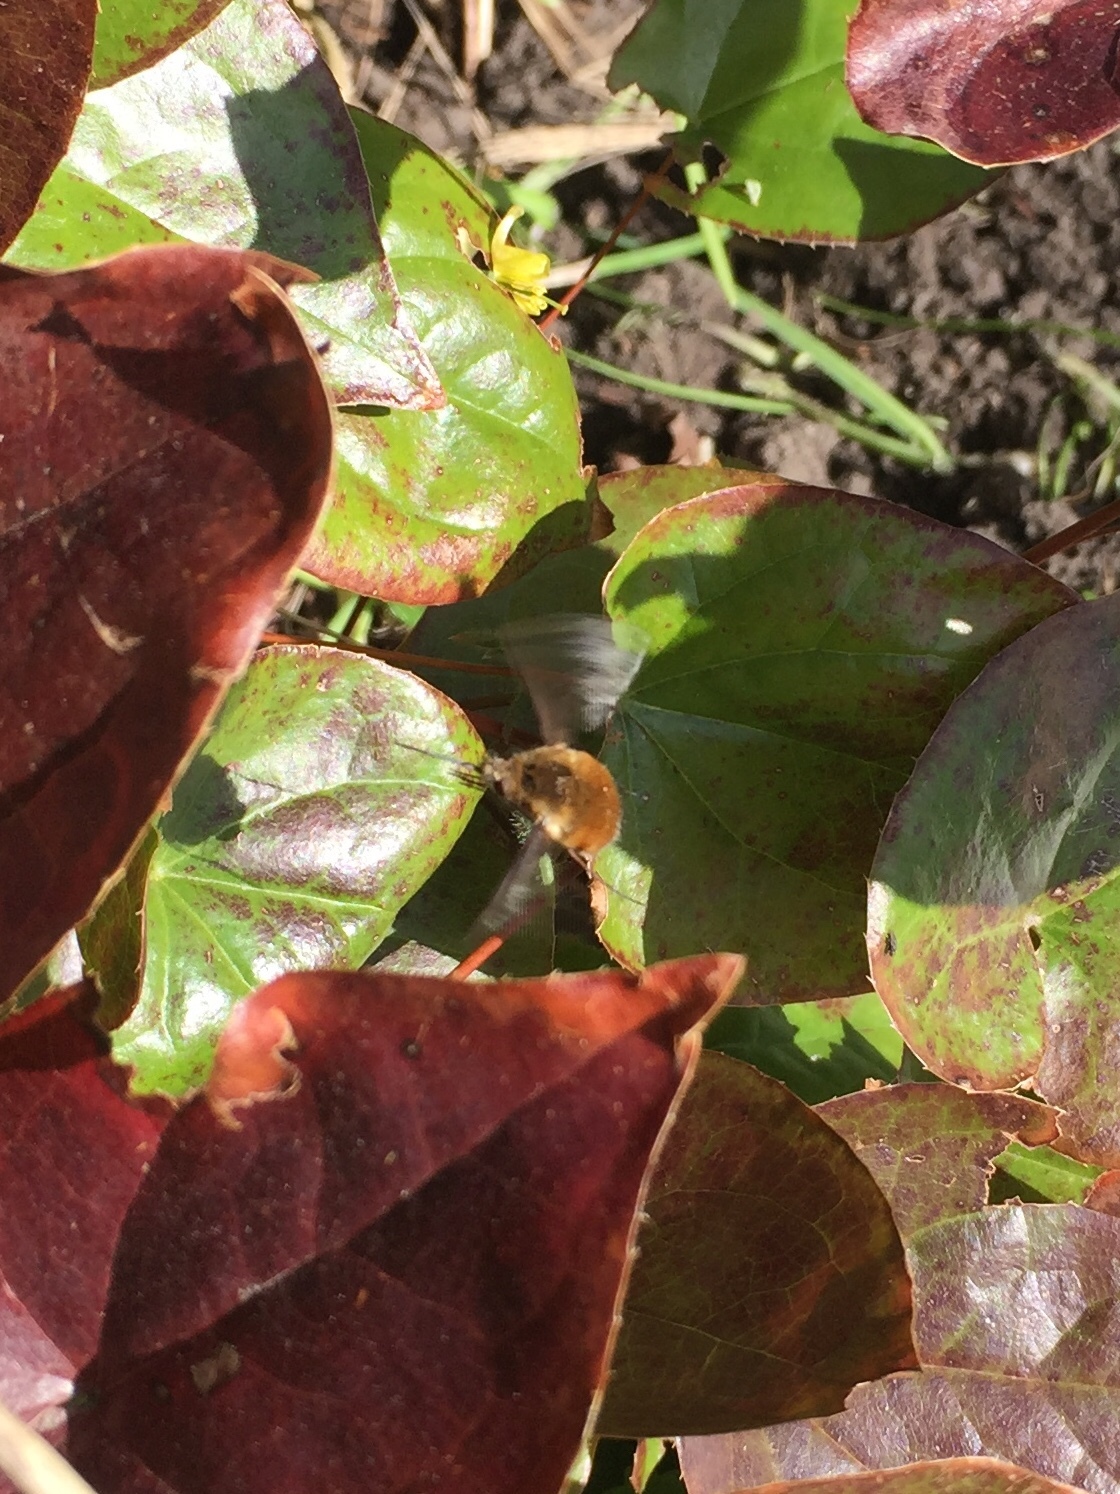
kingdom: Animalia
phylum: Arthropoda
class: Insecta
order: Diptera
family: Bombyliidae
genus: Bombylius
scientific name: Bombylius major
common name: Bee fly
